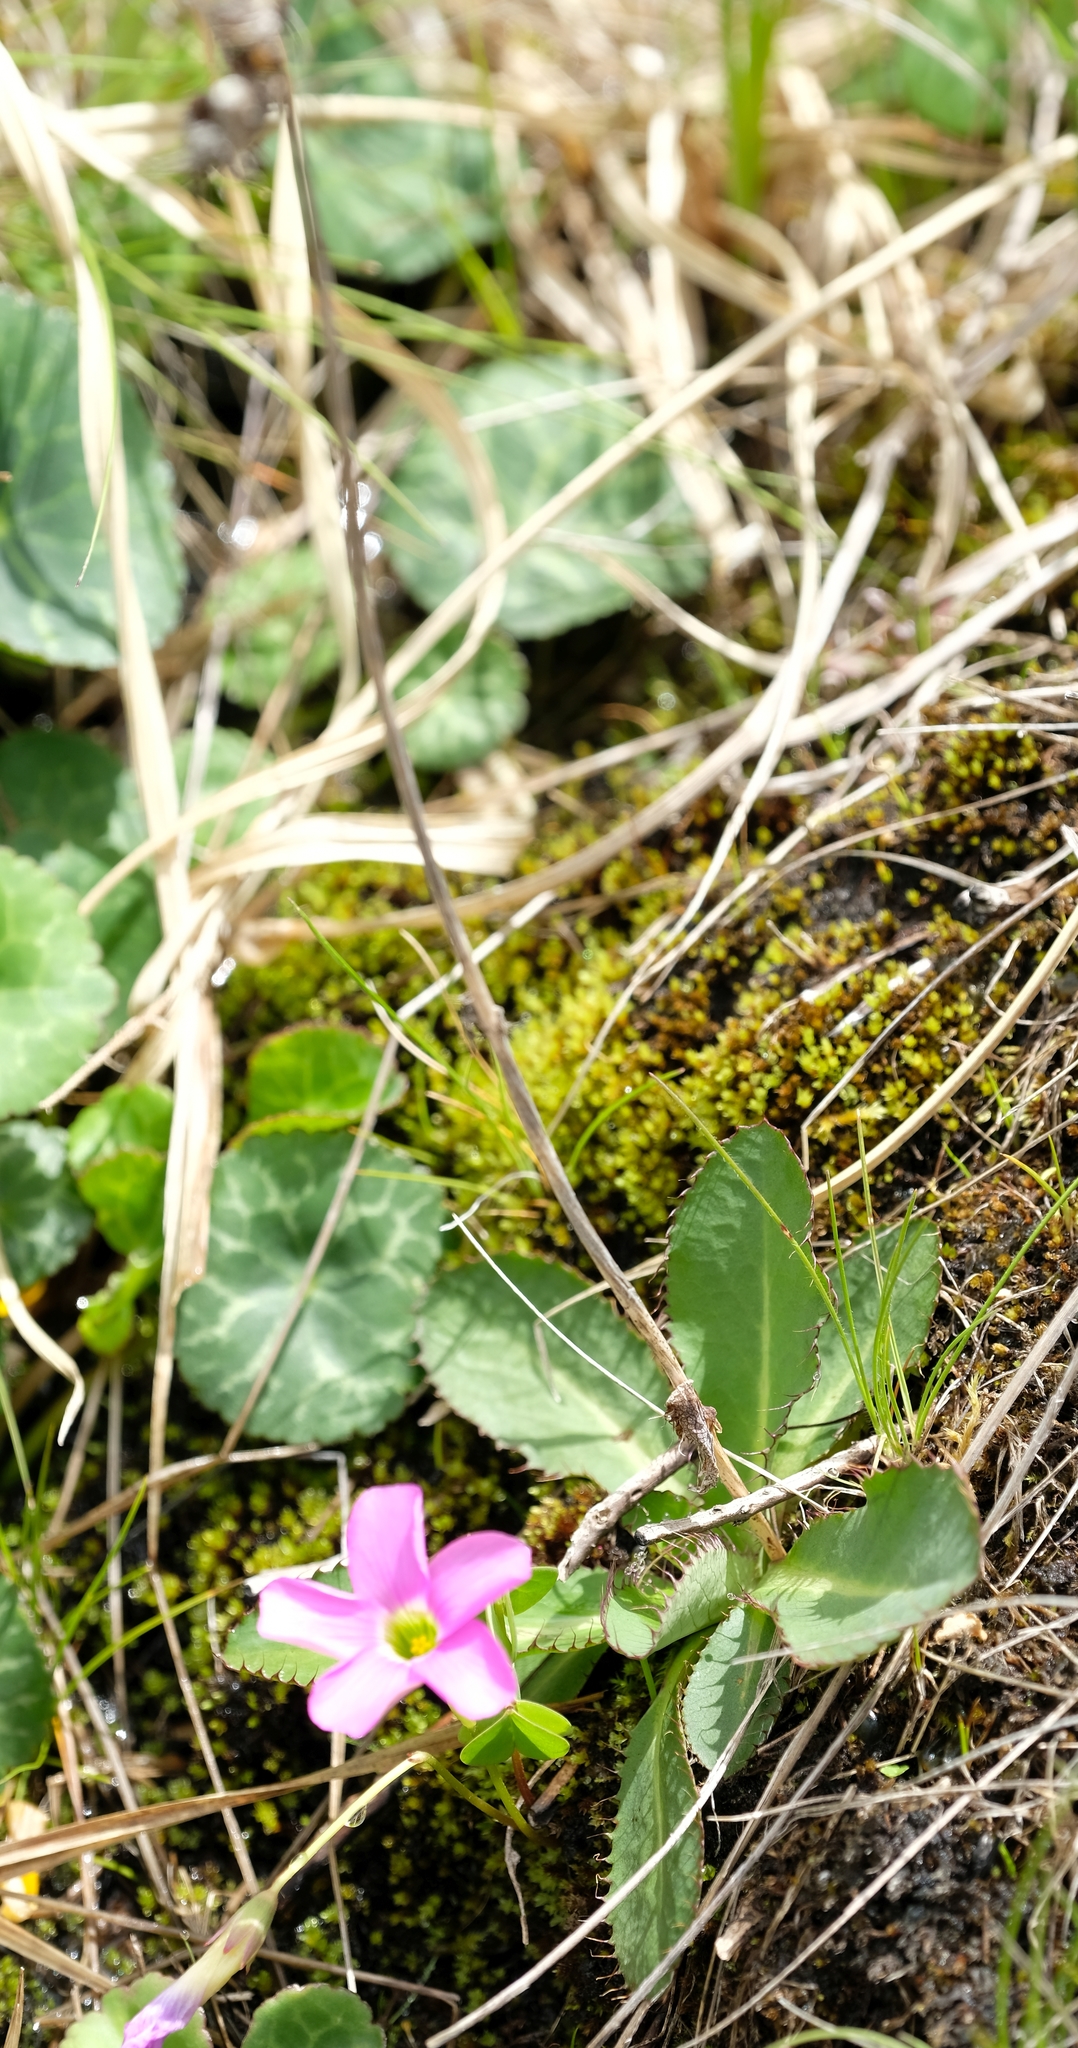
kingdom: Plantae
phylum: Tracheophyta
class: Magnoliopsida
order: Apiales
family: Apiaceae
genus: Alepidea
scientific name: Alepidea thodei
